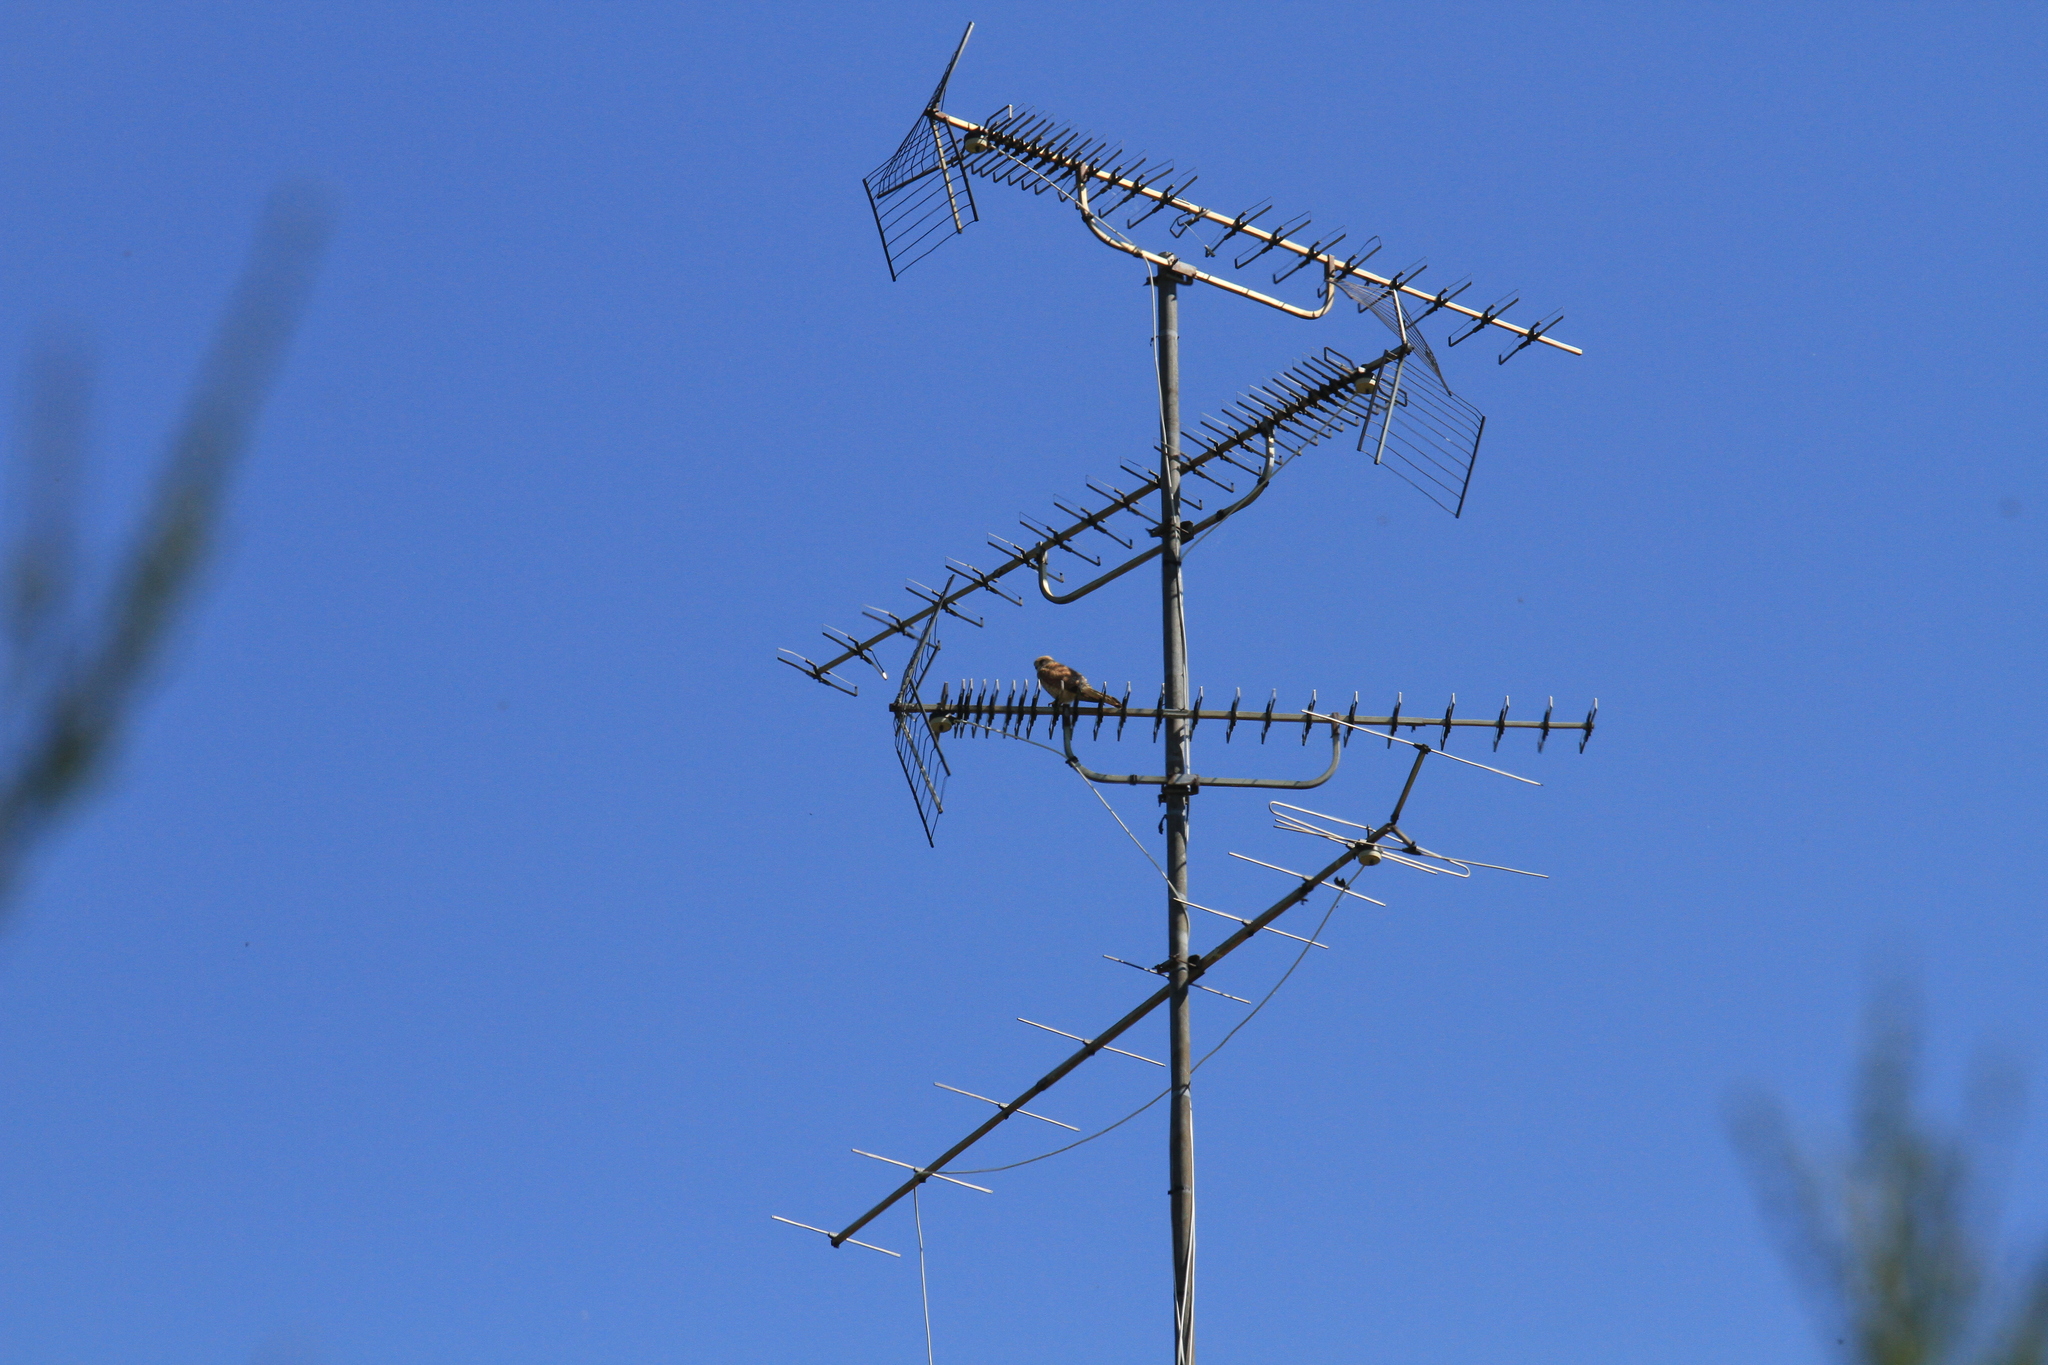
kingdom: Animalia
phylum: Chordata
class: Aves
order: Falconiformes
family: Falconidae
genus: Falco
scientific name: Falco tinnunculus
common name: Common kestrel
